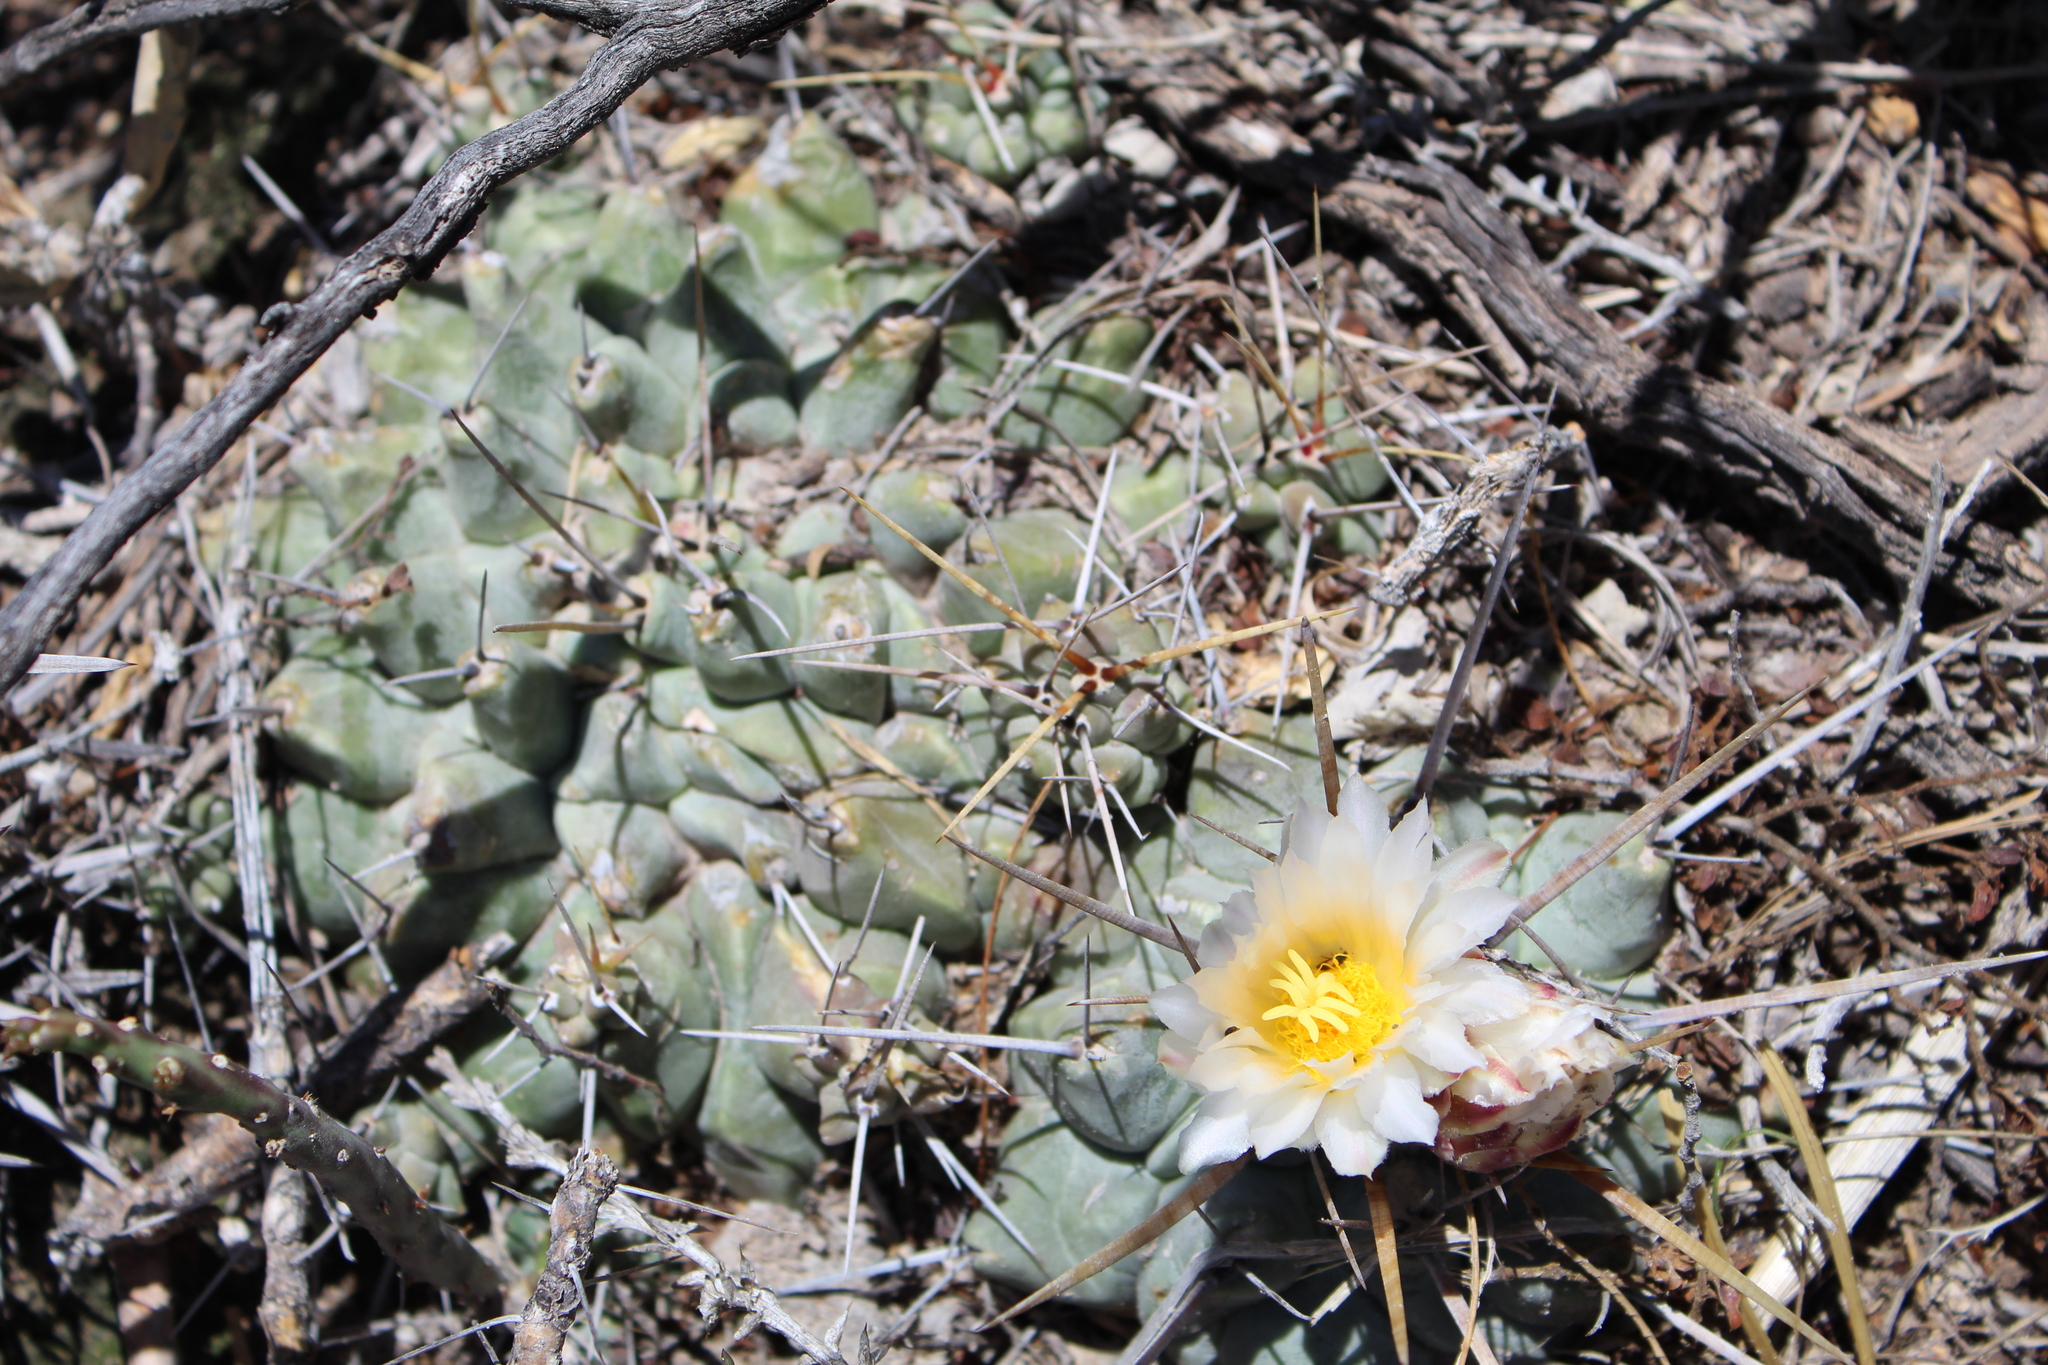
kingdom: Plantae
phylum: Tracheophyta
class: Magnoliopsida
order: Caryophyllales
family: Cactaceae
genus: Thelocactus
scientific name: Thelocactus macdowellii
